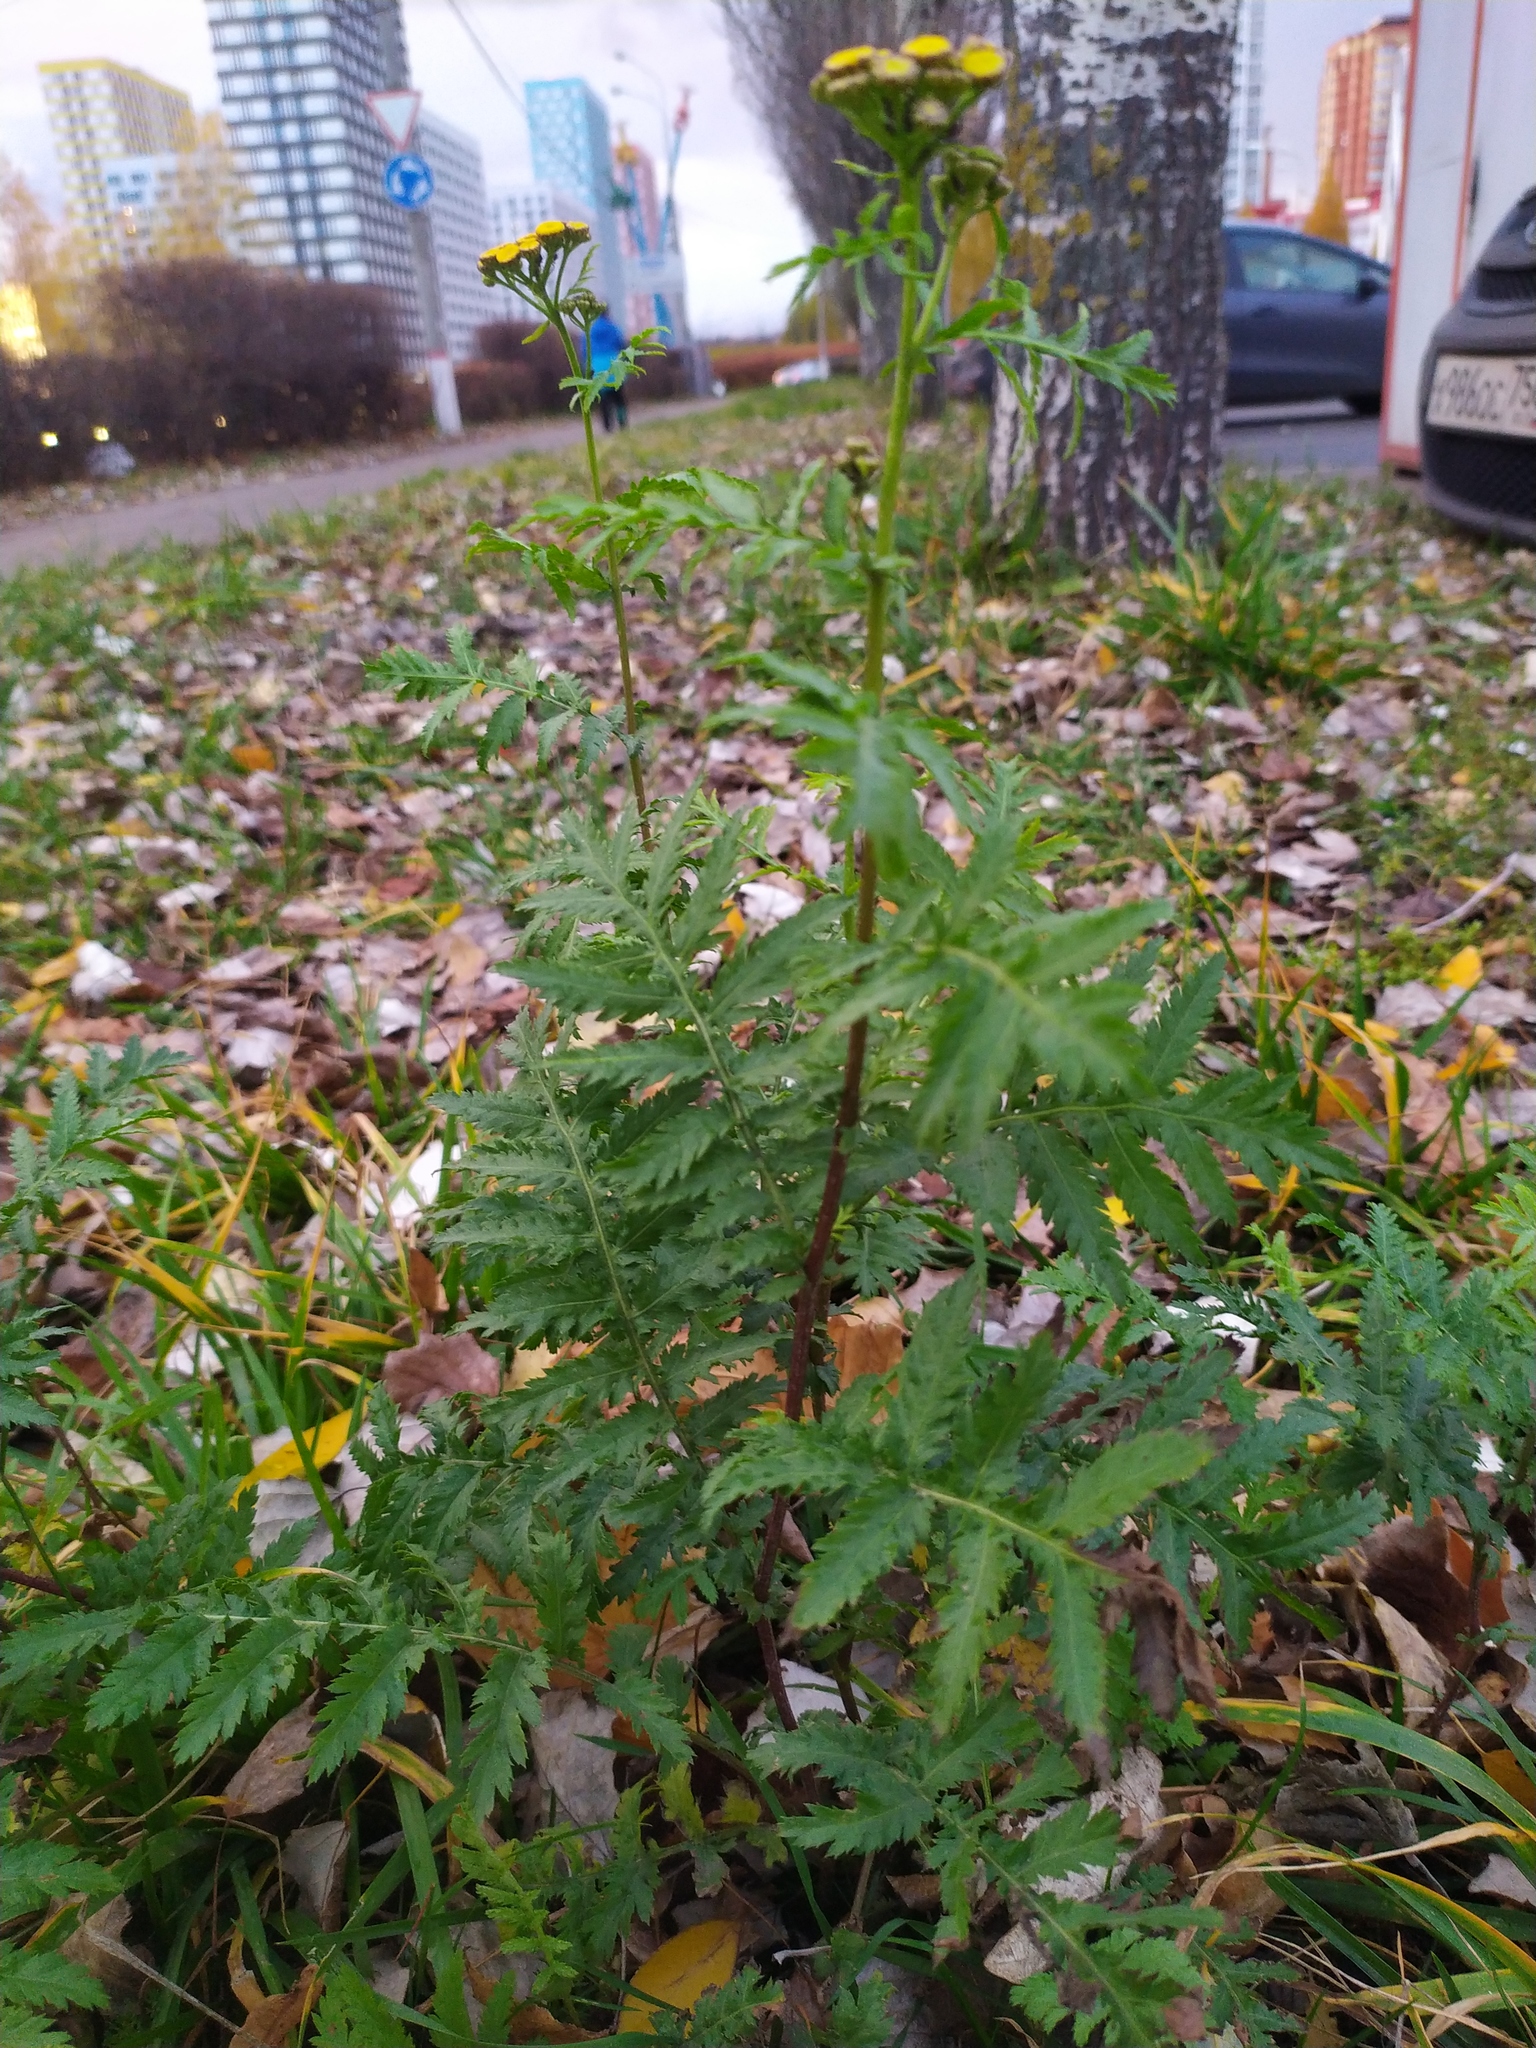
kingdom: Plantae
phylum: Tracheophyta
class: Magnoliopsida
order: Asterales
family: Asteraceae
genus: Tanacetum
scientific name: Tanacetum vulgare
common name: Common tansy
